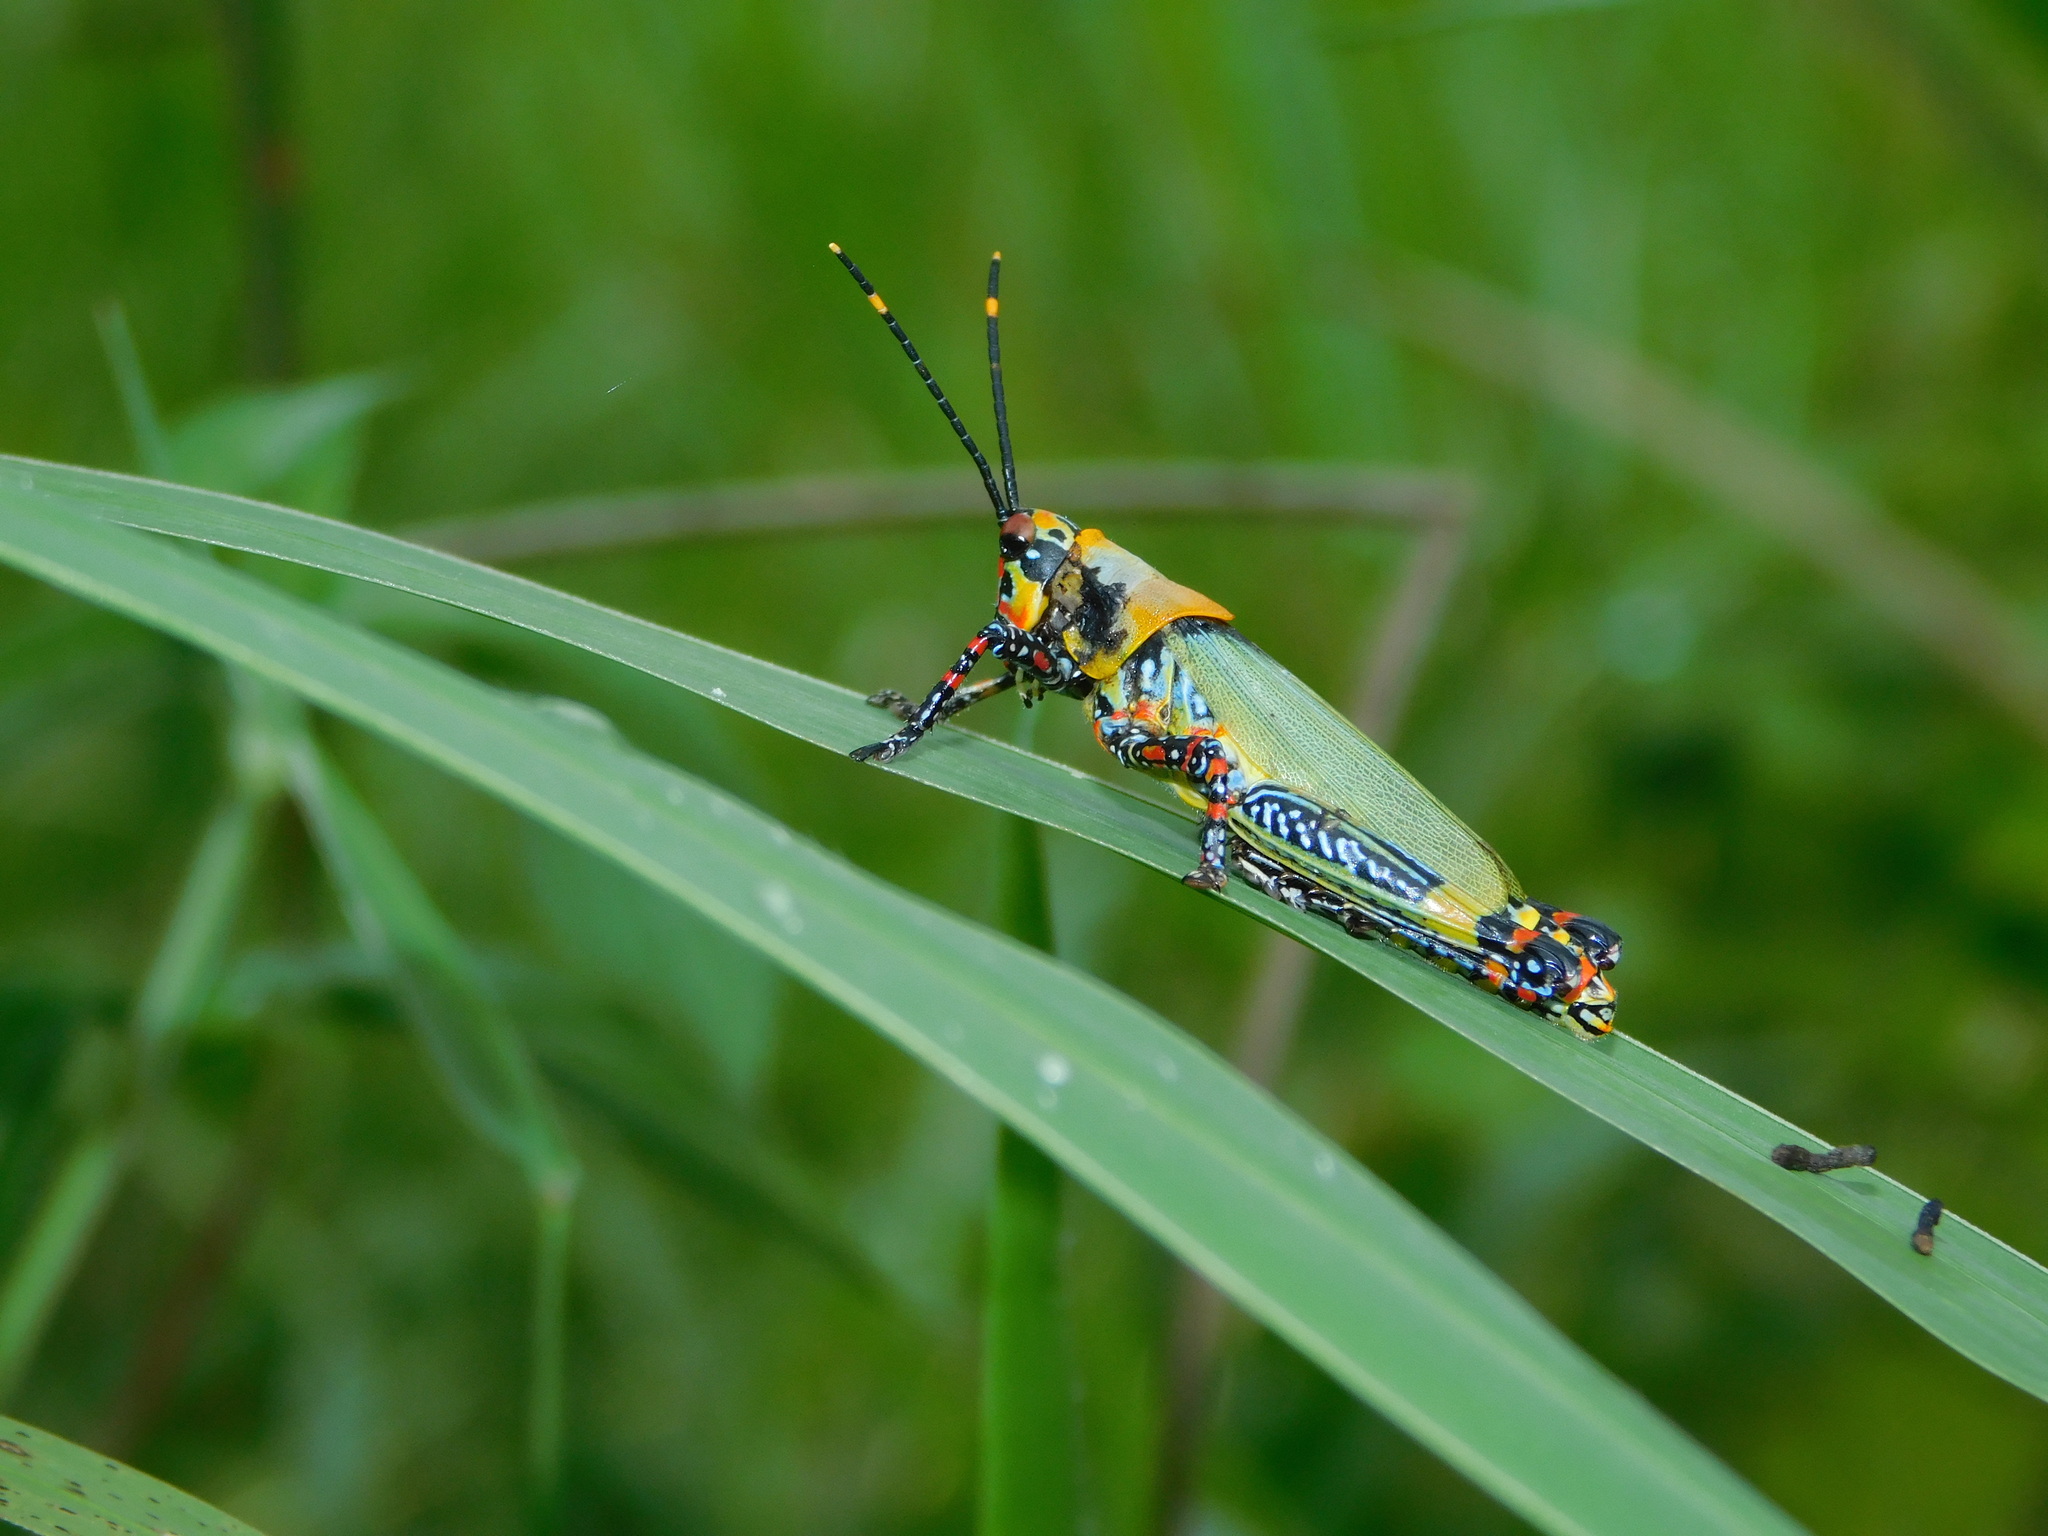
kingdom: Animalia
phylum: Arthropoda
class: Insecta
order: Orthoptera
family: Pyrgomorphidae
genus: Zonocerus
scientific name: Zonocerus variegatus
